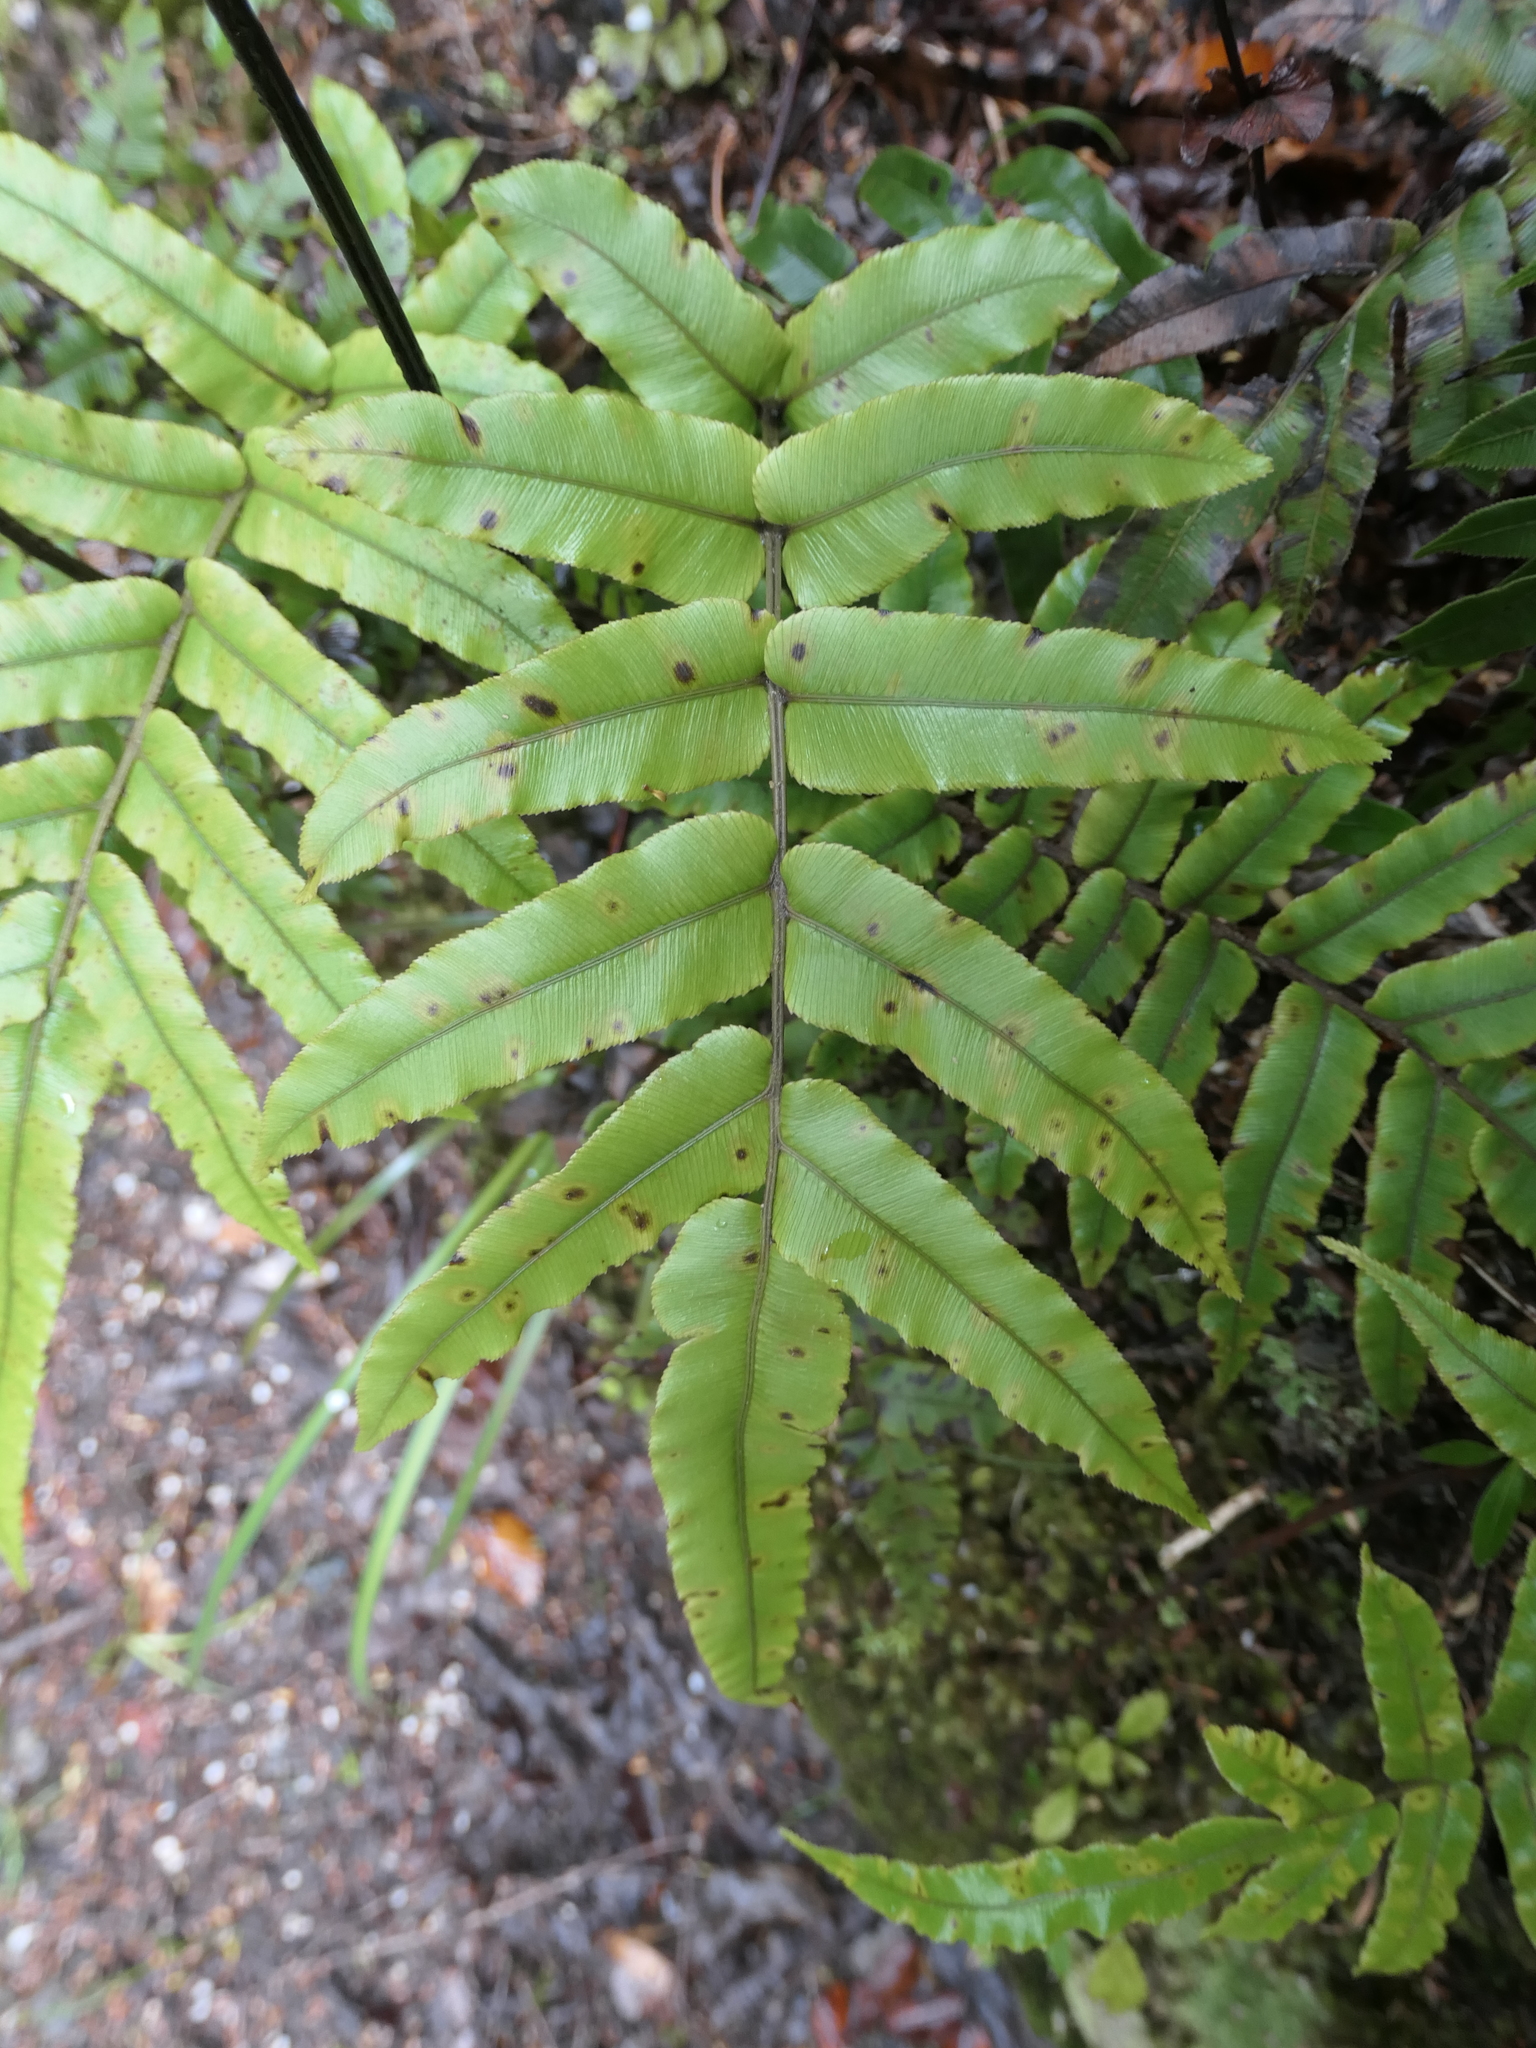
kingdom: Plantae
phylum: Tracheophyta
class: Polypodiopsida
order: Polypodiales
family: Blechnaceae
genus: Parablechnum
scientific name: Parablechnum procerum
